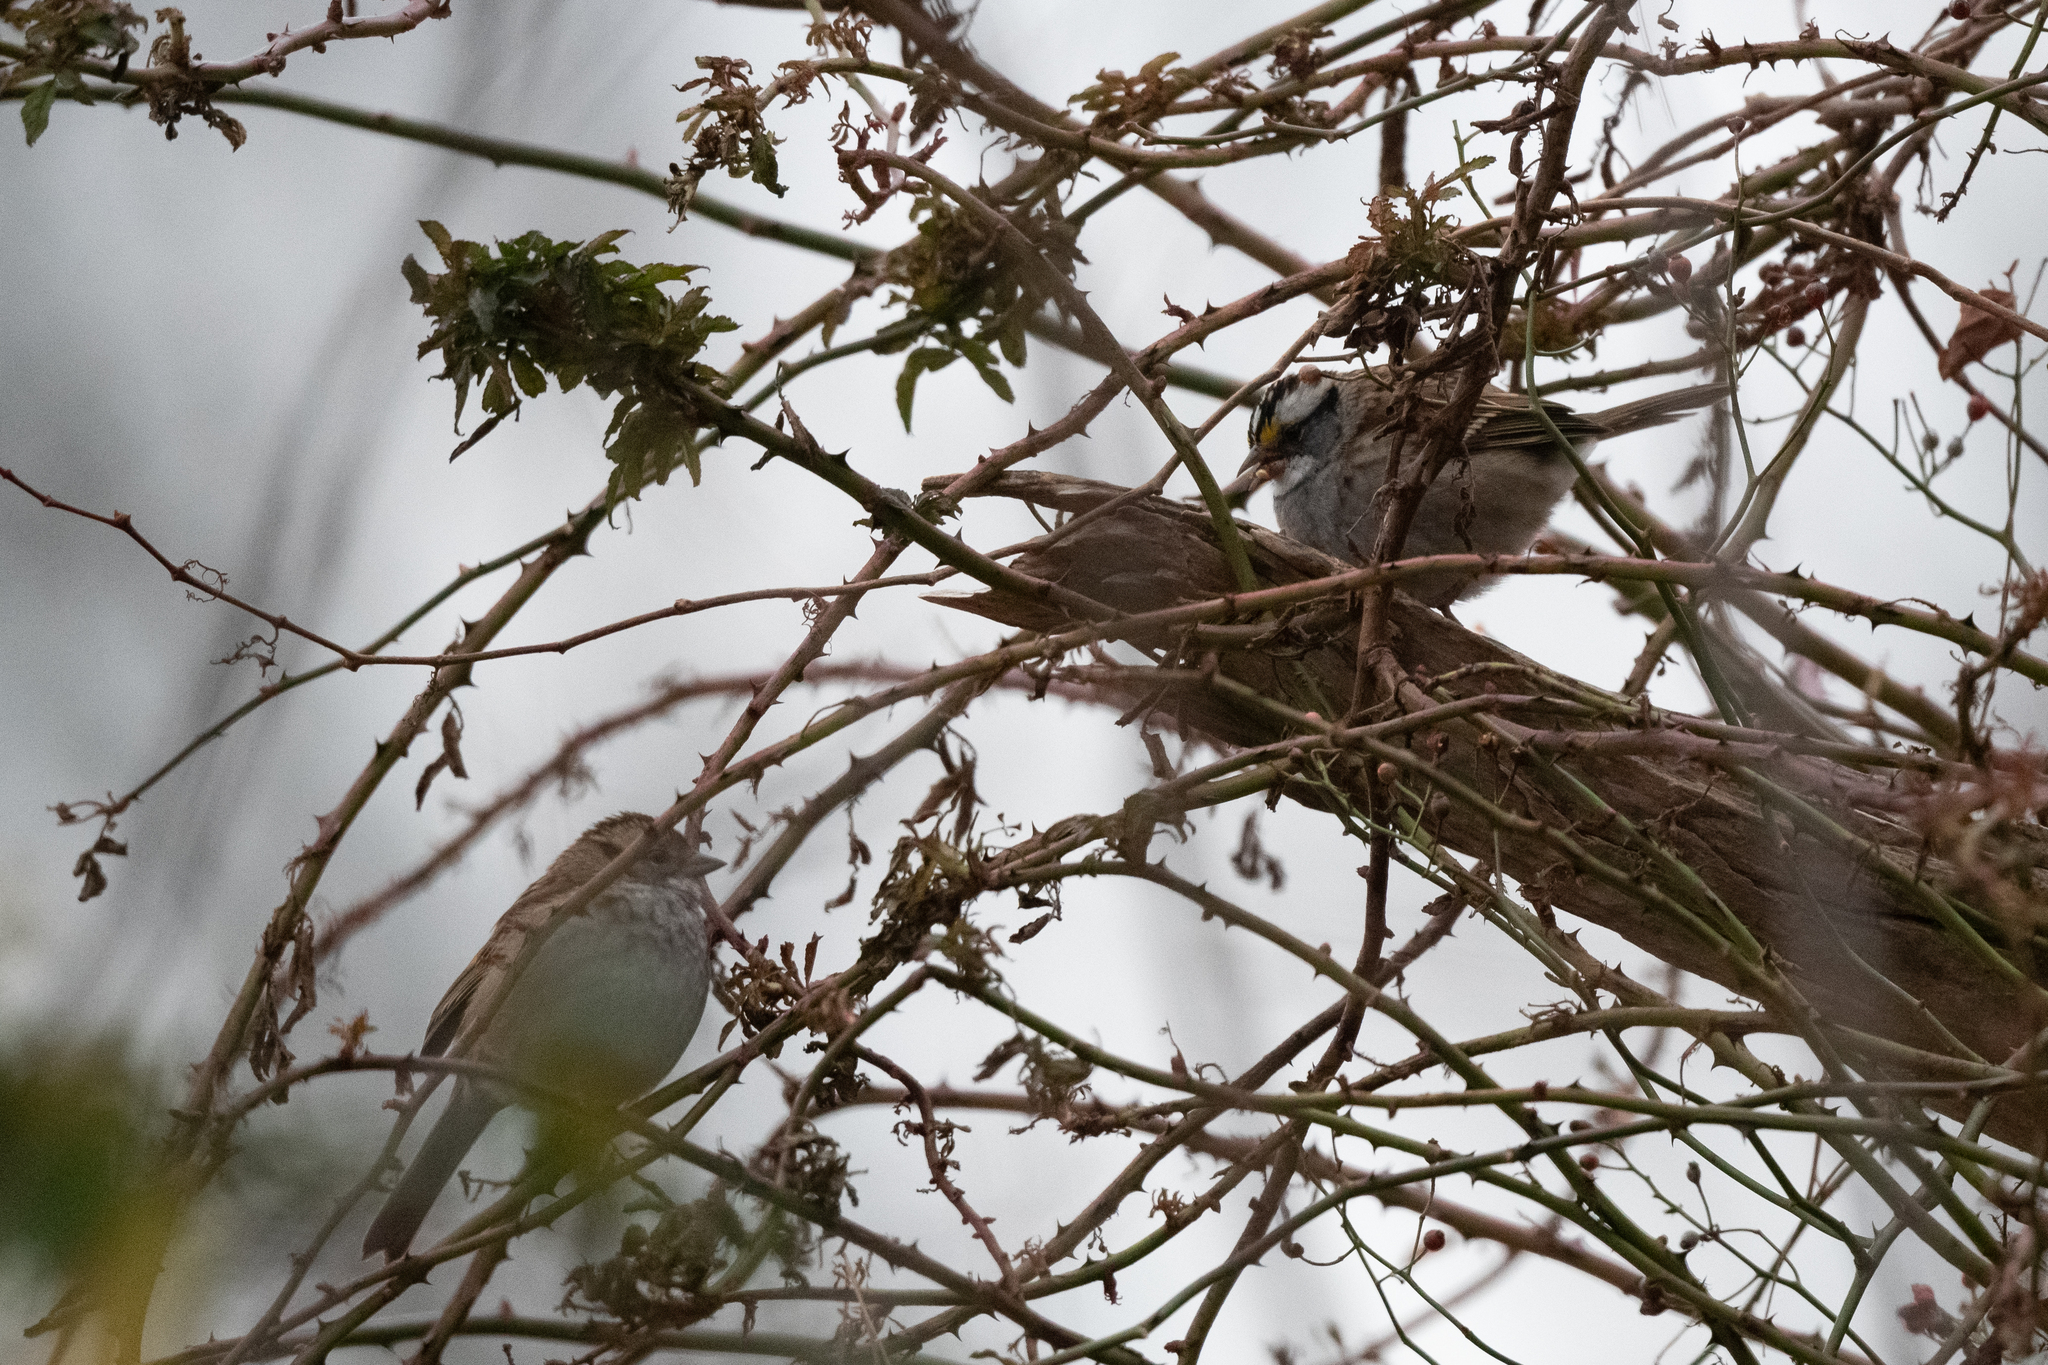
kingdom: Animalia
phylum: Chordata
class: Aves
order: Passeriformes
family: Passerellidae
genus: Zonotrichia
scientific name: Zonotrichia albicollis
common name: White-throated sparrow
